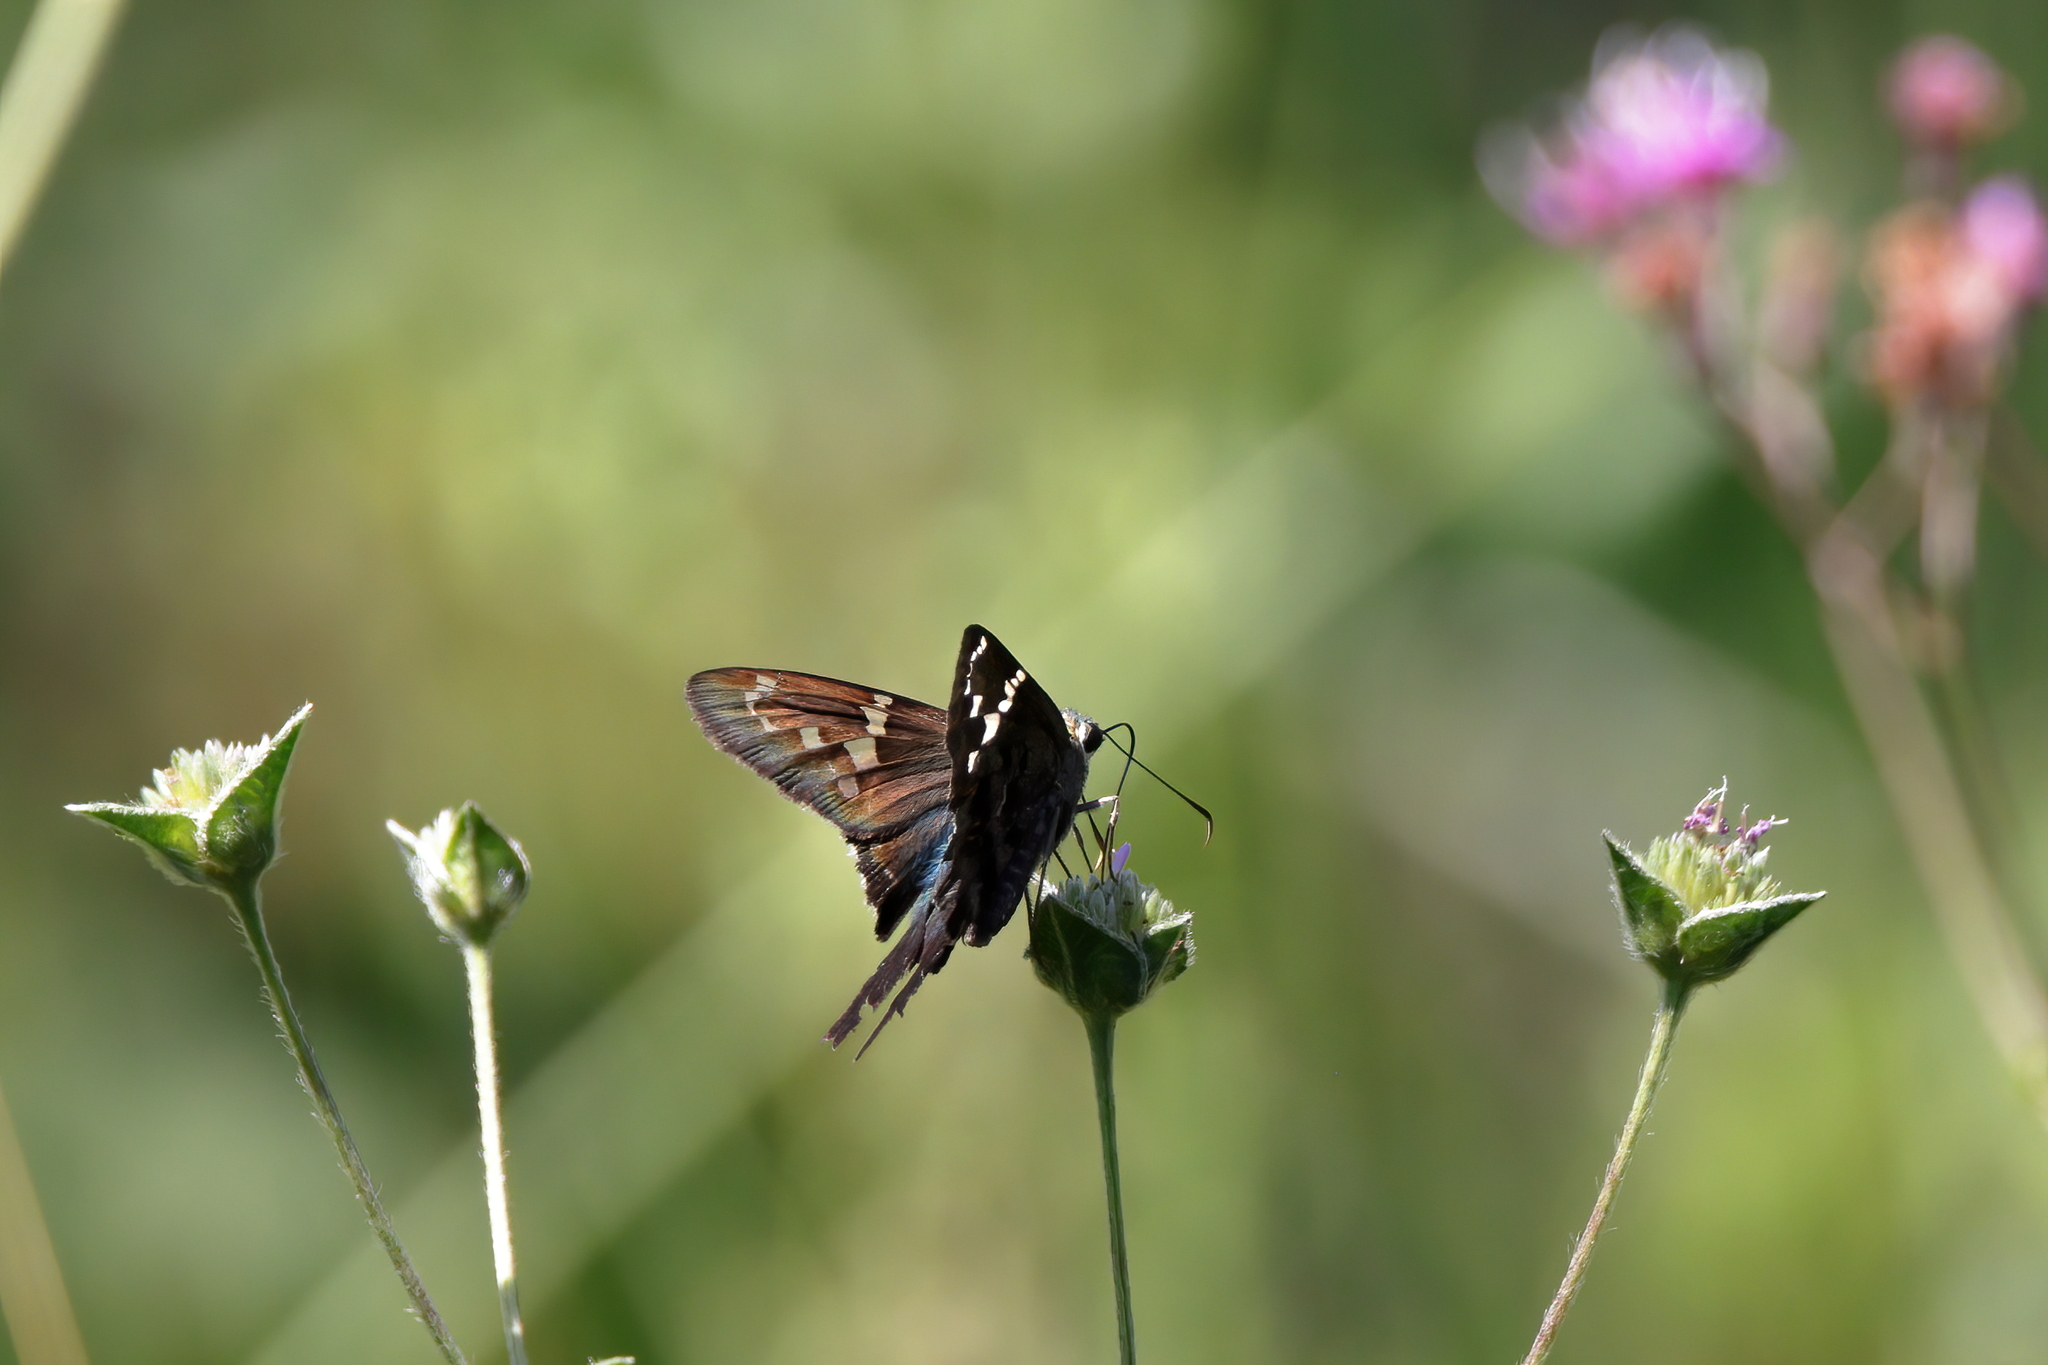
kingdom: Animalia
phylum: Arthropoda
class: Insecta
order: Lepidoptera
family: Hesperiidae
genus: Urbanus
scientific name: Urbanus proteus
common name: Long-tailed skipper
